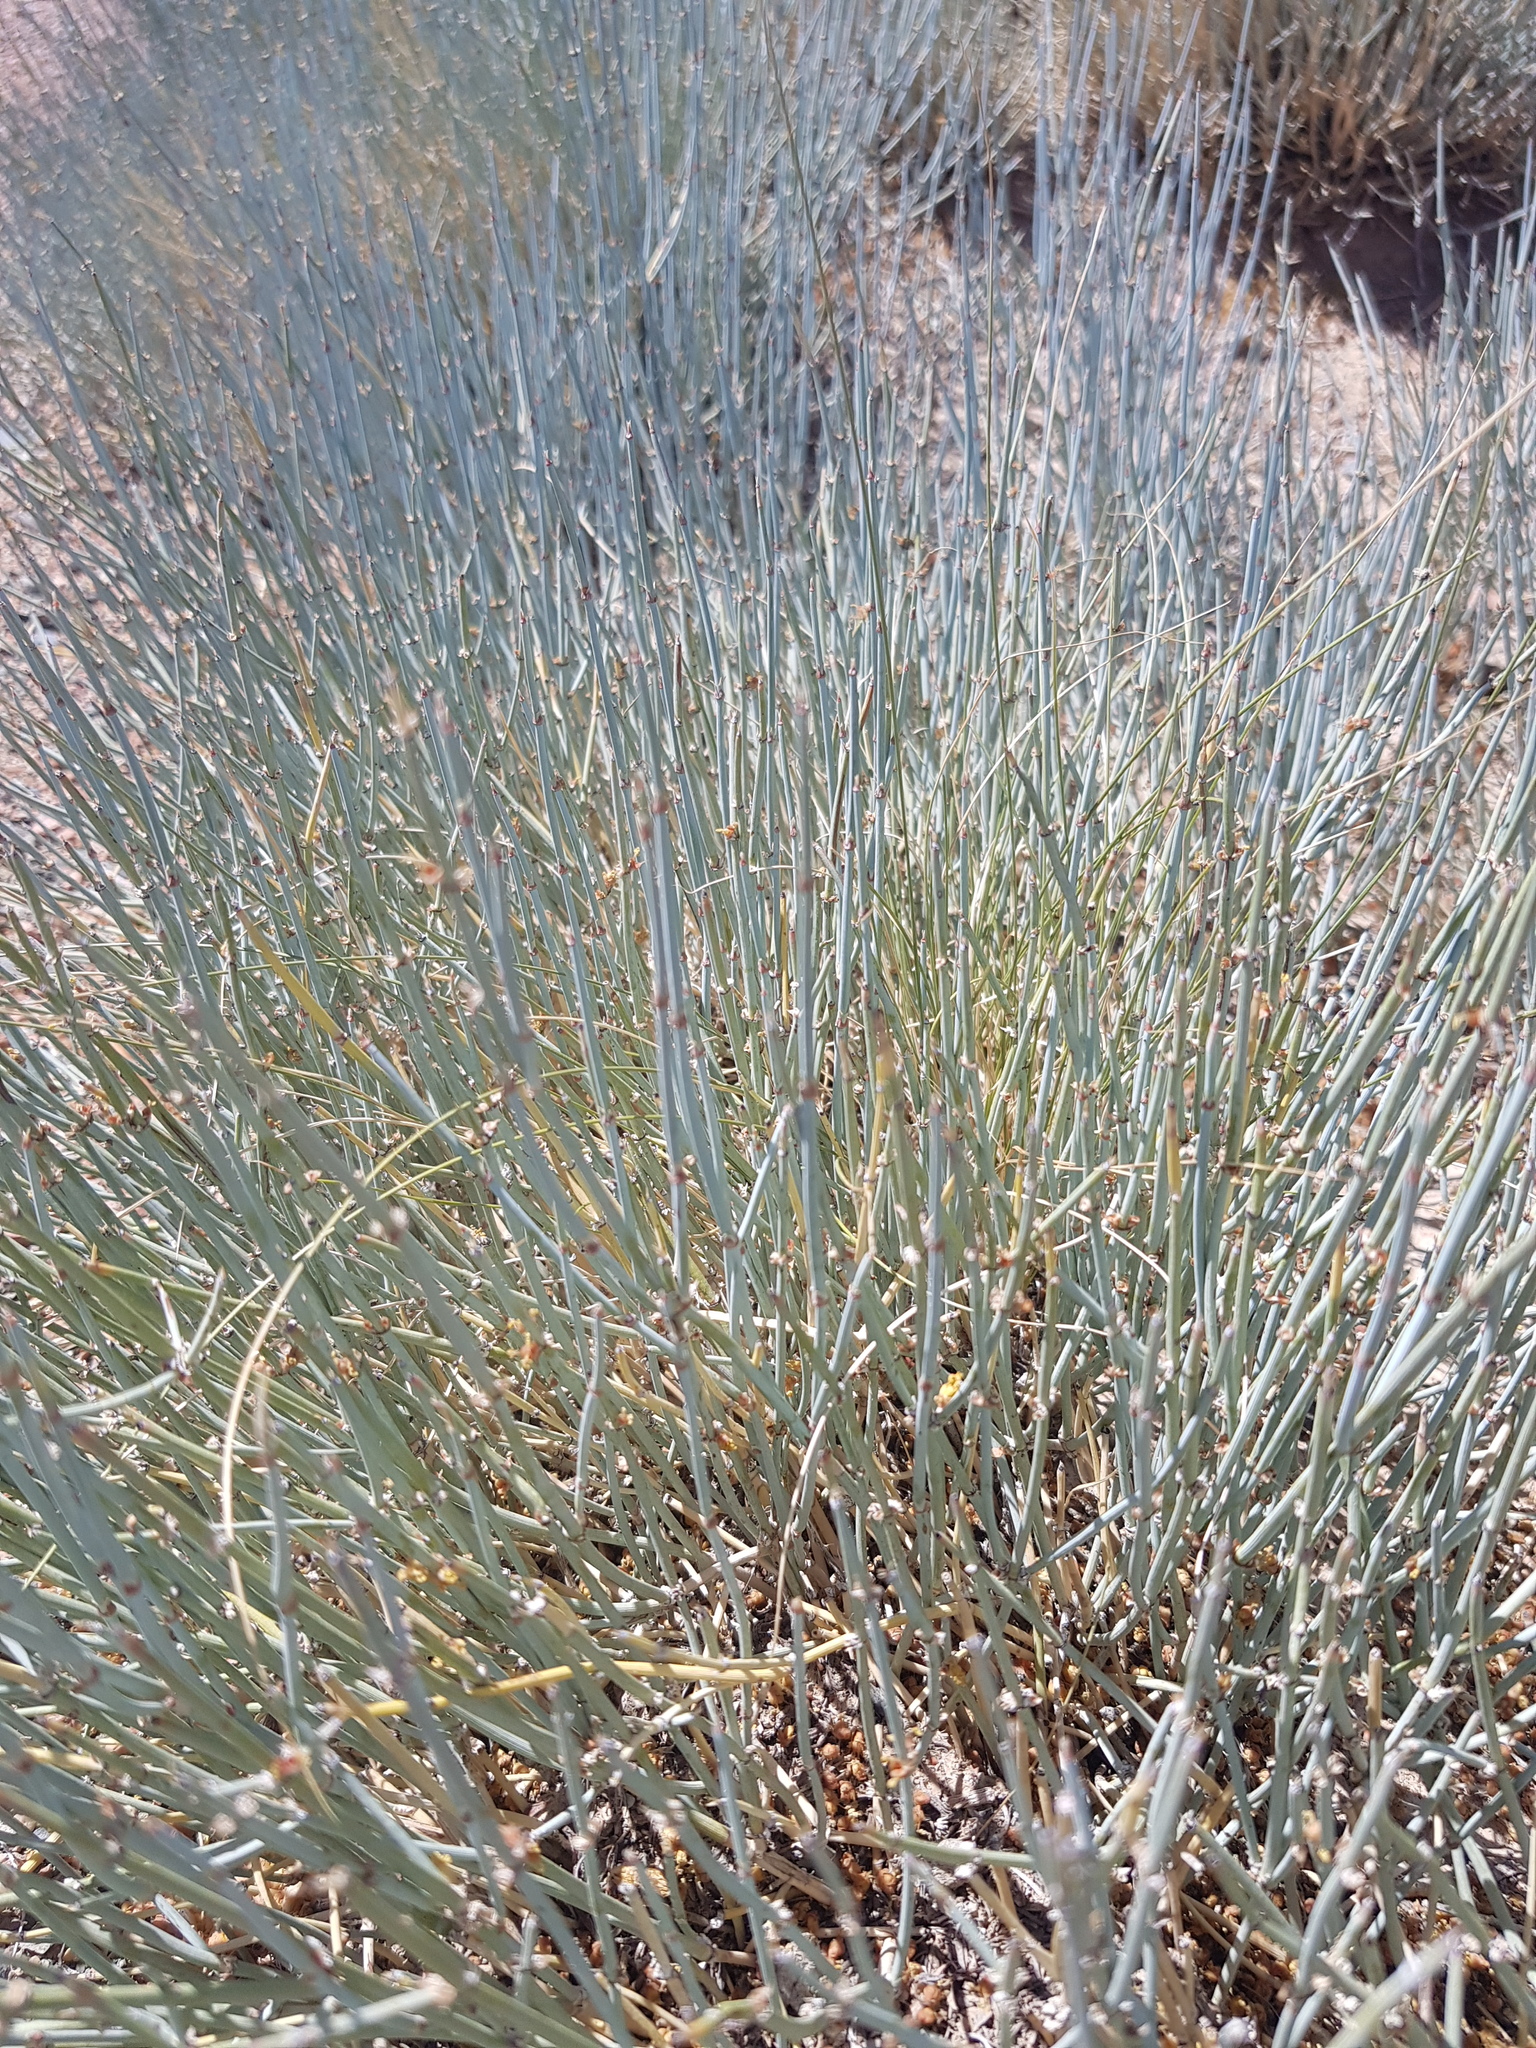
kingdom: Plantae
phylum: Tracheophyta
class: Gnetopsida
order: Ephedrales
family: Ephedraceae
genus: Ephedra
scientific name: Ephedra equisetina
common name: Mongolian ephedra
